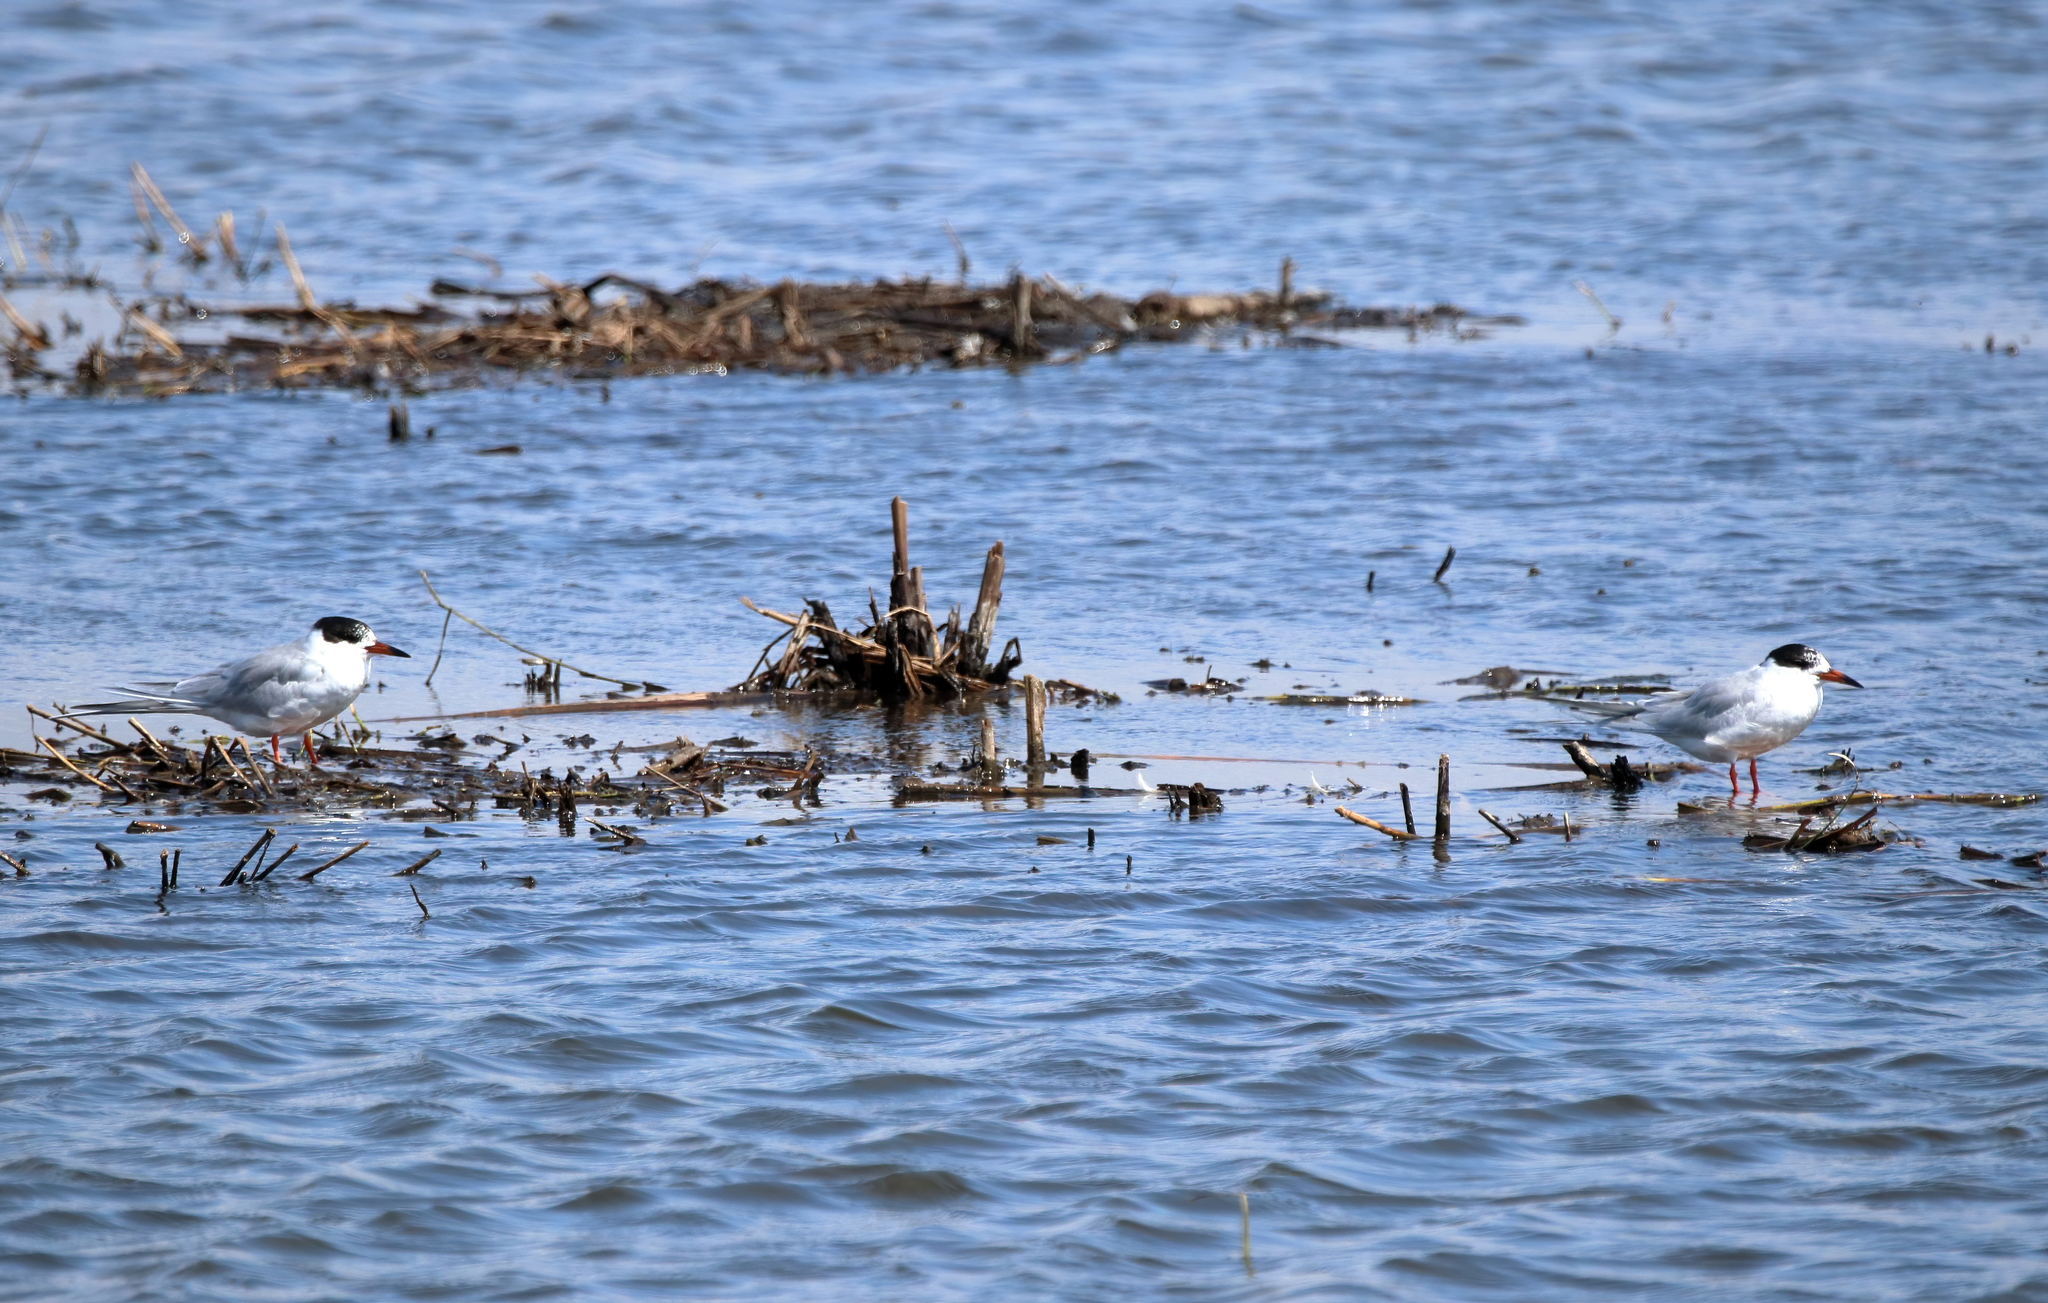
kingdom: Animalia
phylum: Chordata
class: Aves
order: Charadriiformes
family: Laridae
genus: Sterna
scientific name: Sterna forsteri
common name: Forster's tern
